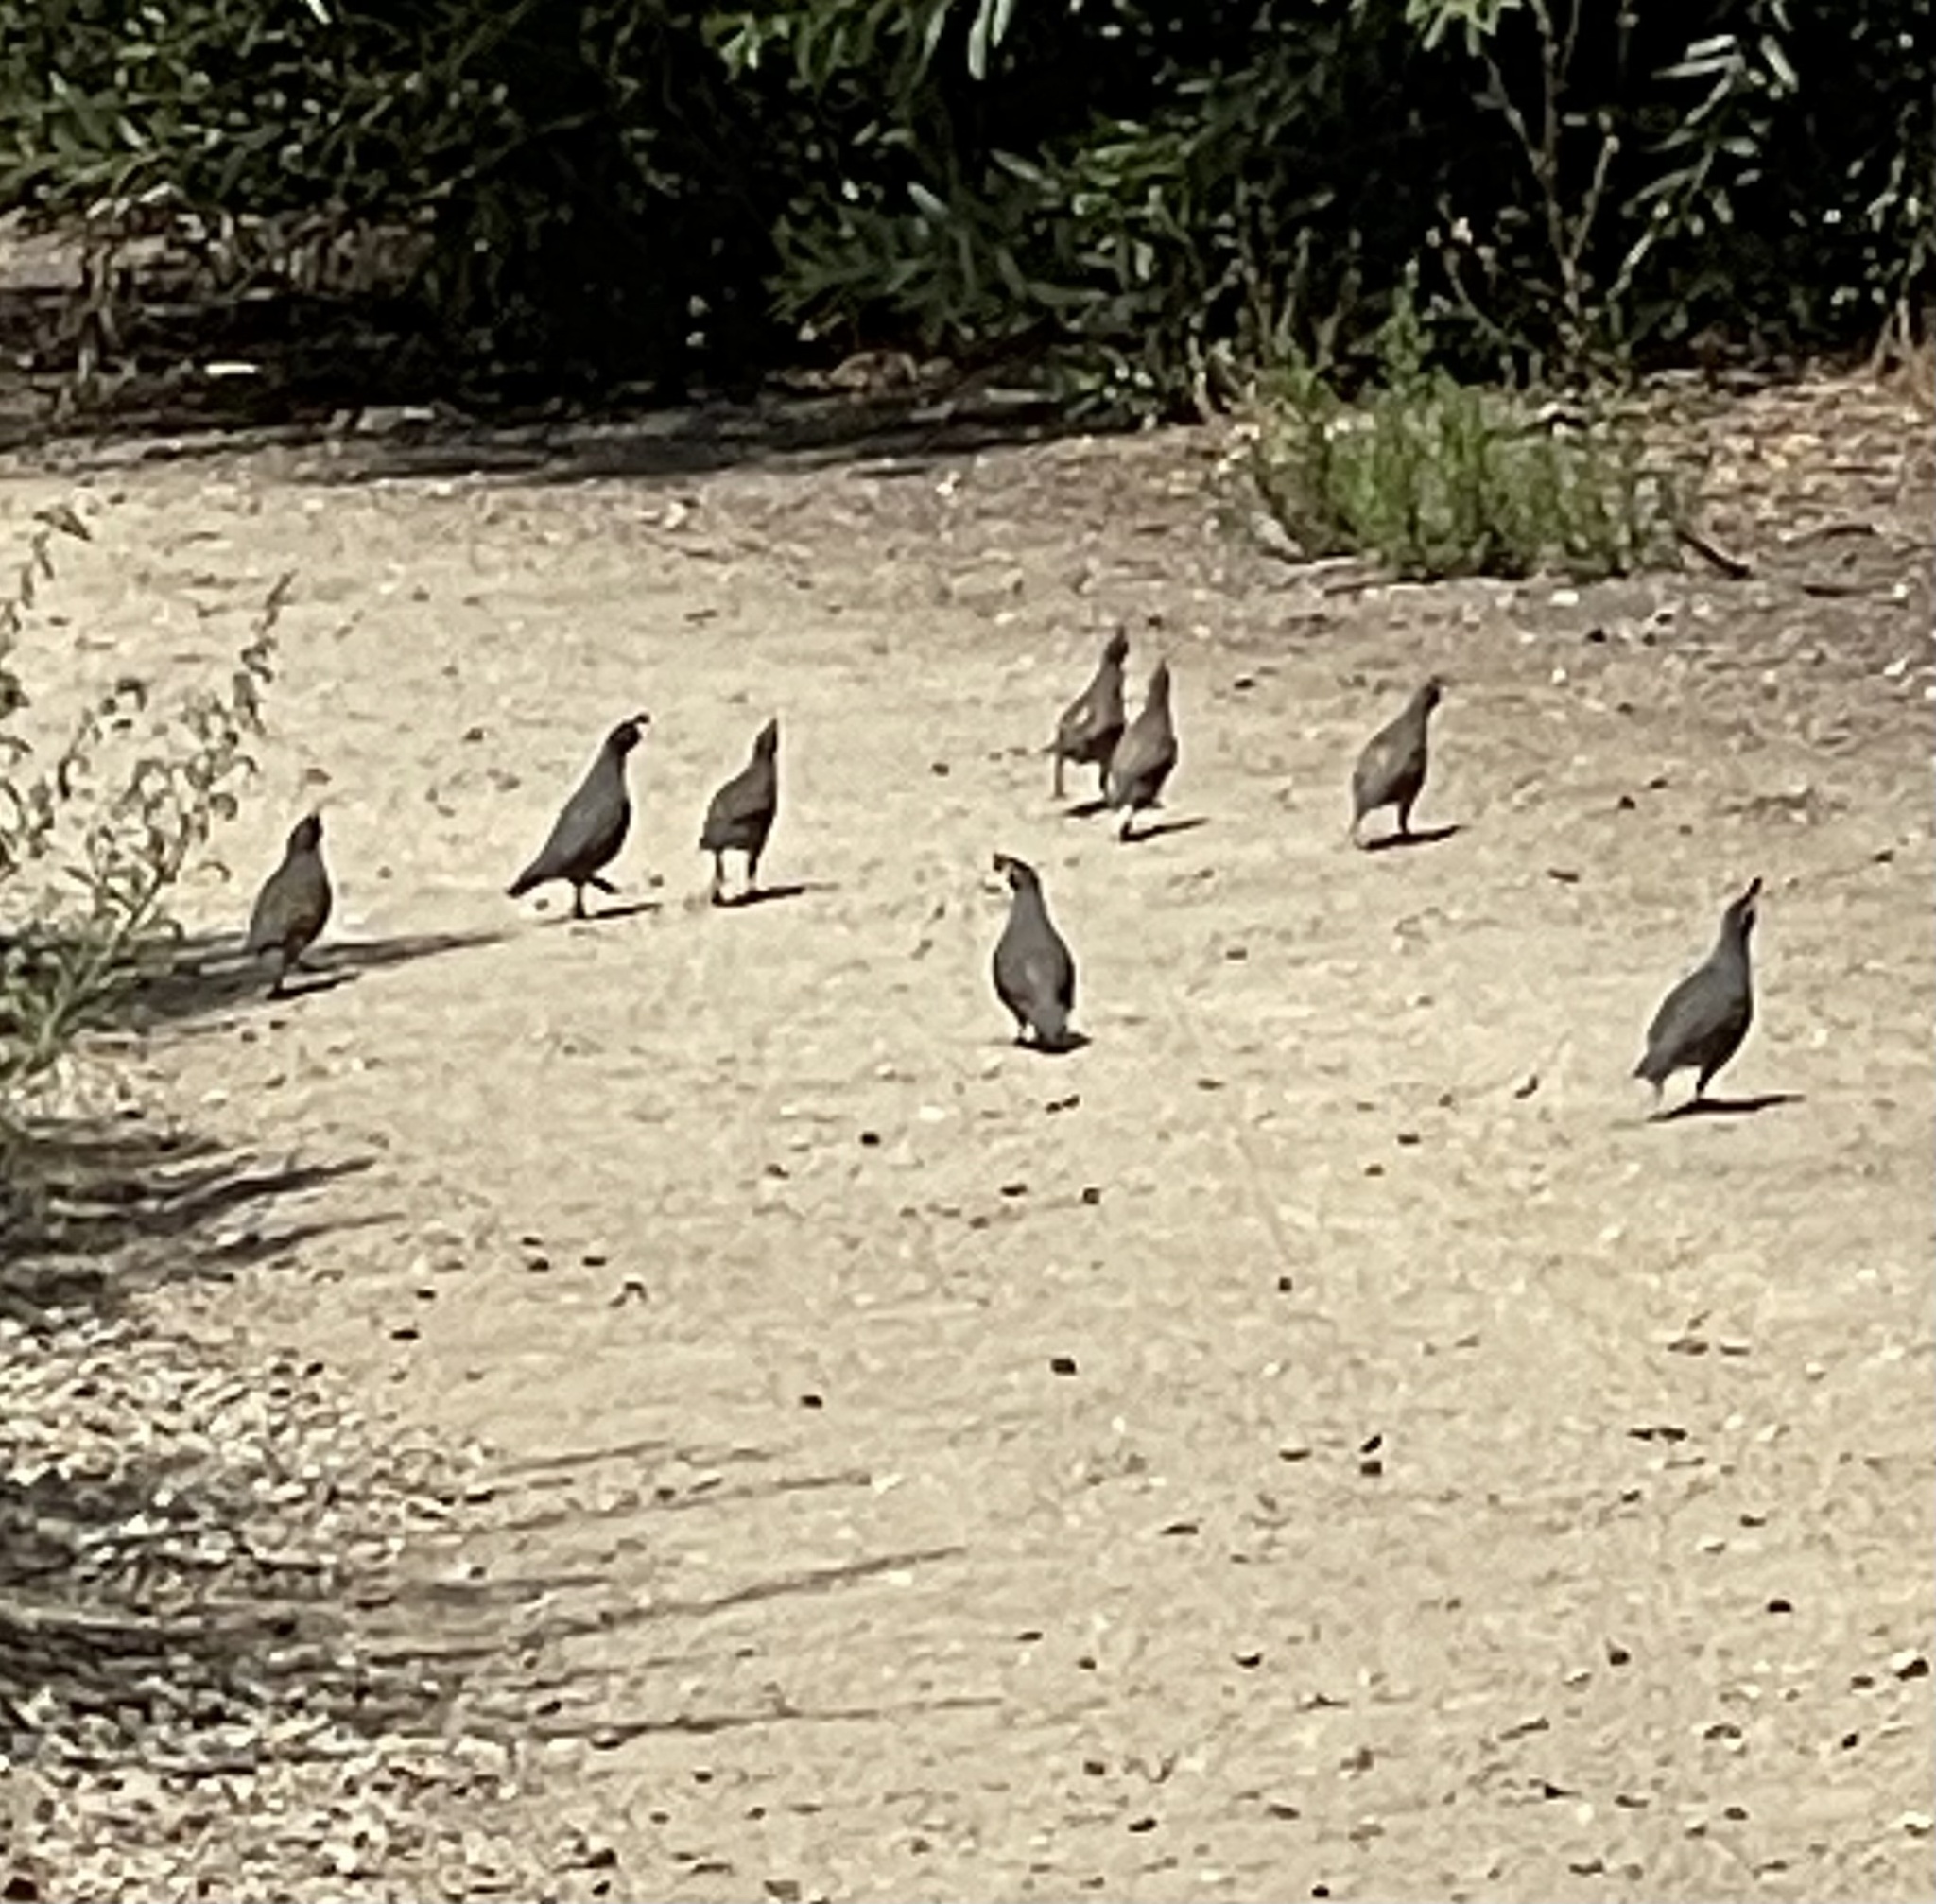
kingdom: Animalia
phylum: Chordata
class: Aves
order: Galliformes
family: Odontophoridae
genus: Callipepla
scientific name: Callipepla californica
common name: California quail
